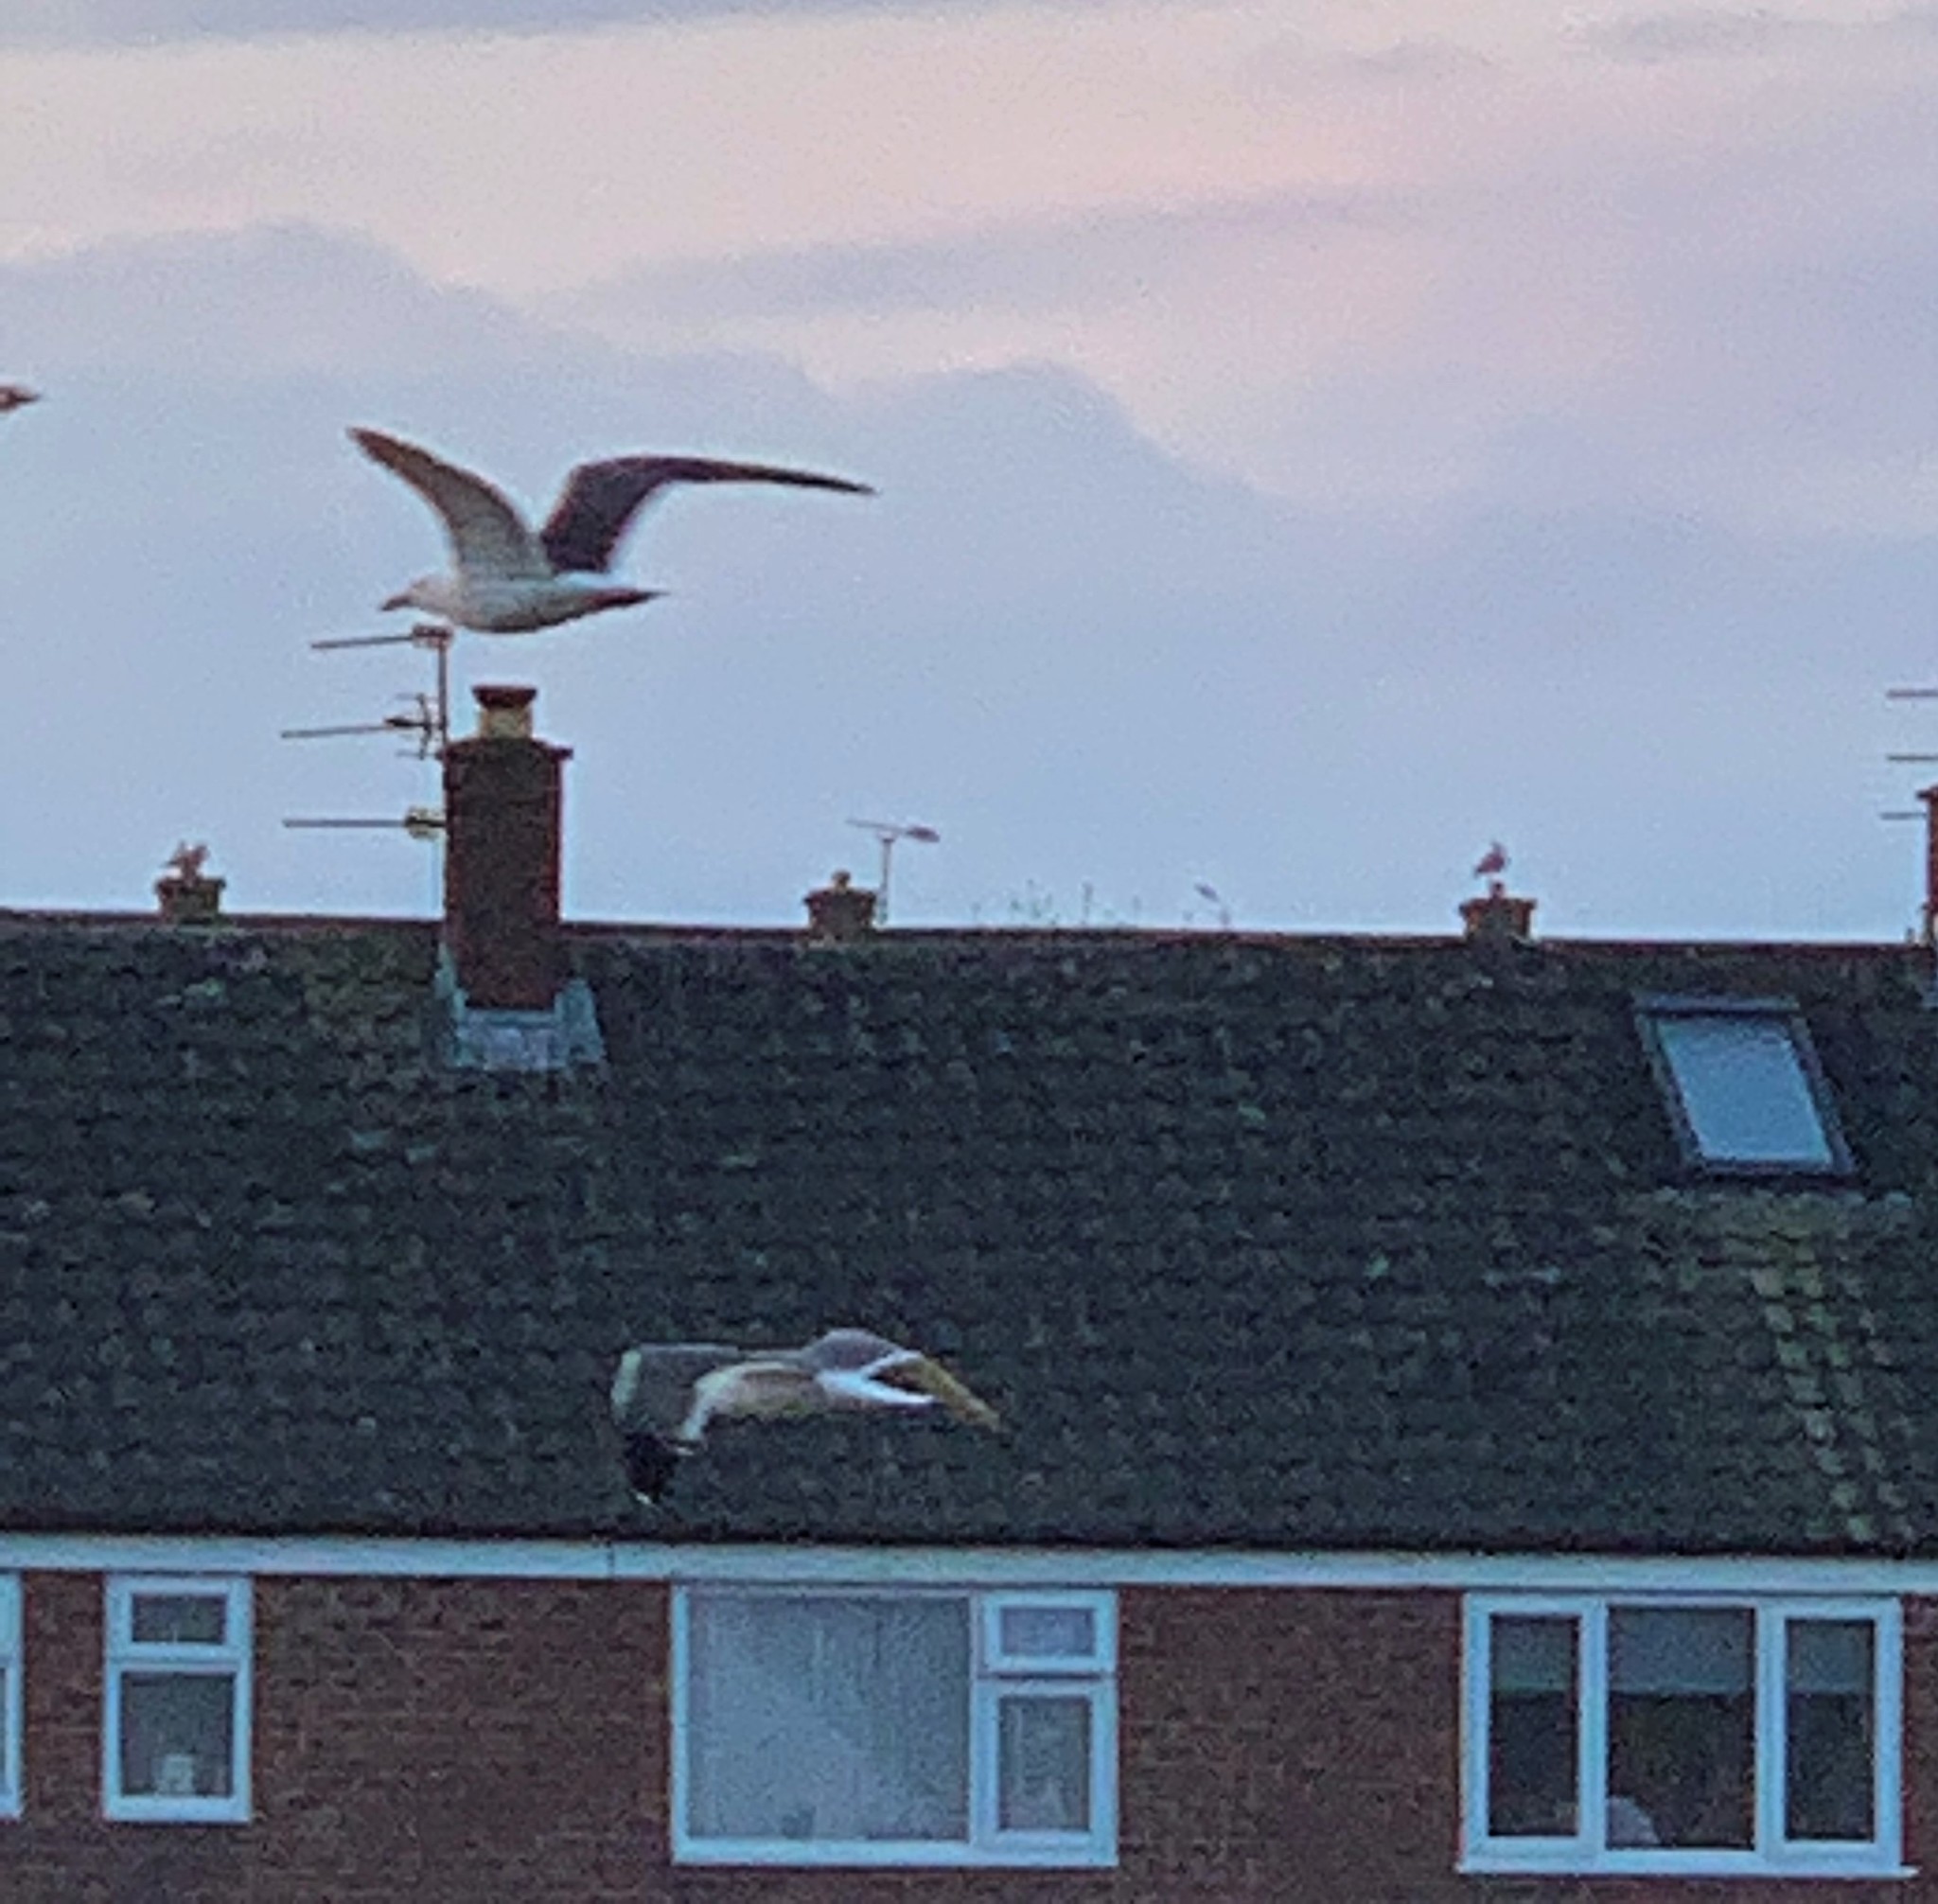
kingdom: Animalia
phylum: Chordata
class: Aves
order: Charadriiformes
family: Laridae
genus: Larus
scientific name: Larus fuscus
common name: Lesser black-backed gull
